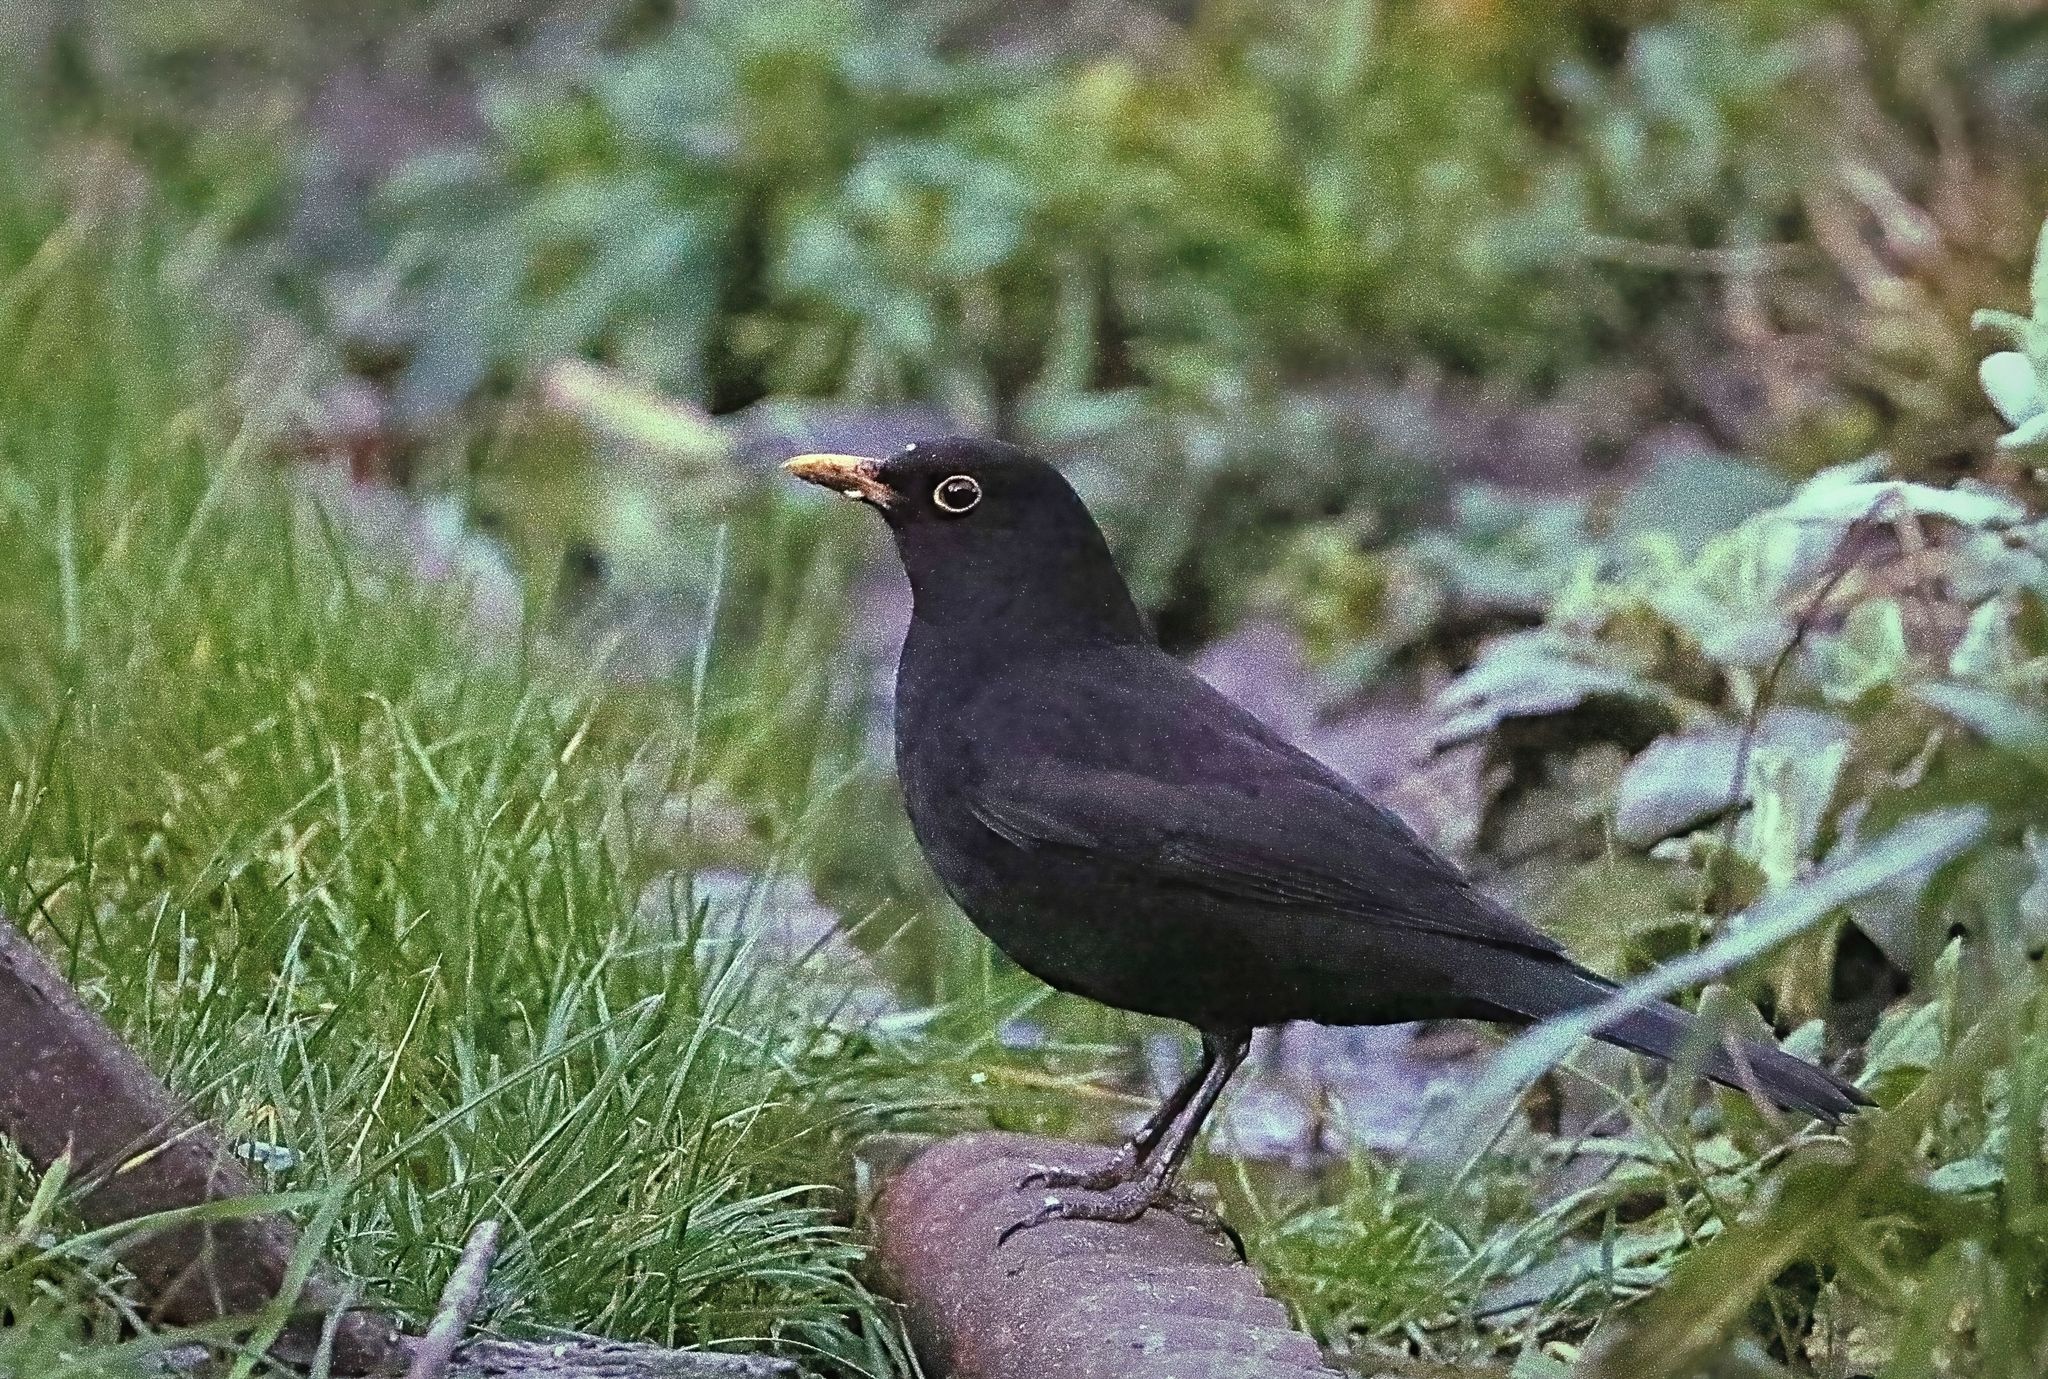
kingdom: Animalia
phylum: Chordata
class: Aves
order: Passeriformes
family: Turdidae
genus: Turdus
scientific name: Turdus merula
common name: Common blackbird
